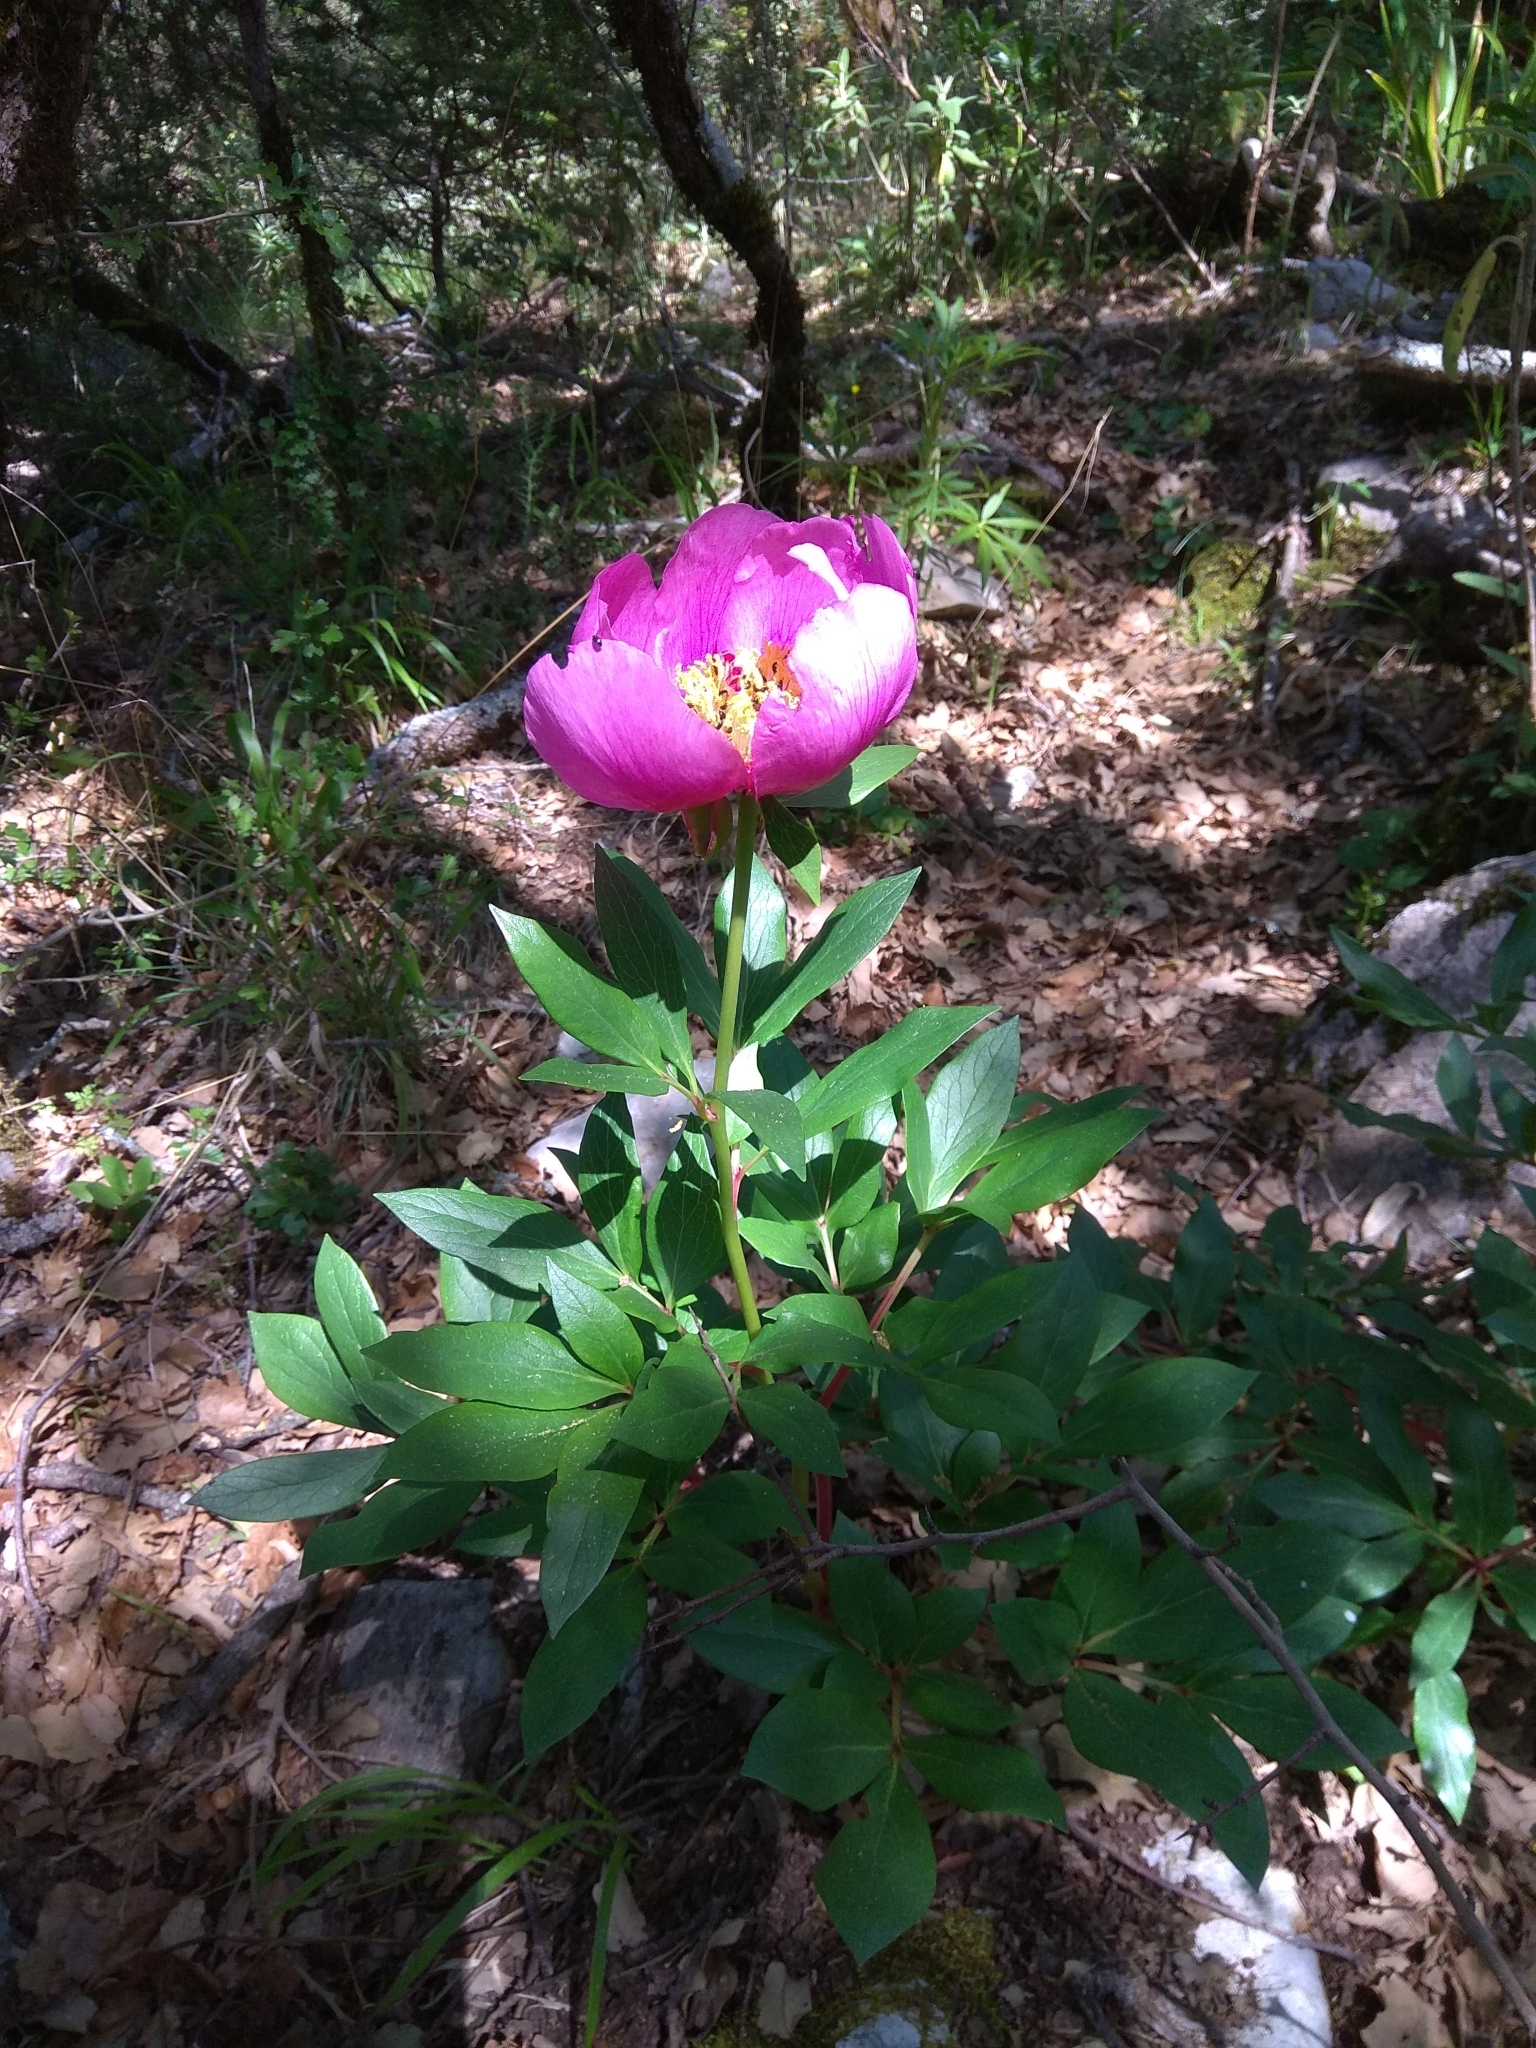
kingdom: Plantae
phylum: Tracheophyta
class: Magnoliopsida
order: Saxifragales
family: Paeoniaceae
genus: Paeonia
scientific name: Paeonia broteroi
